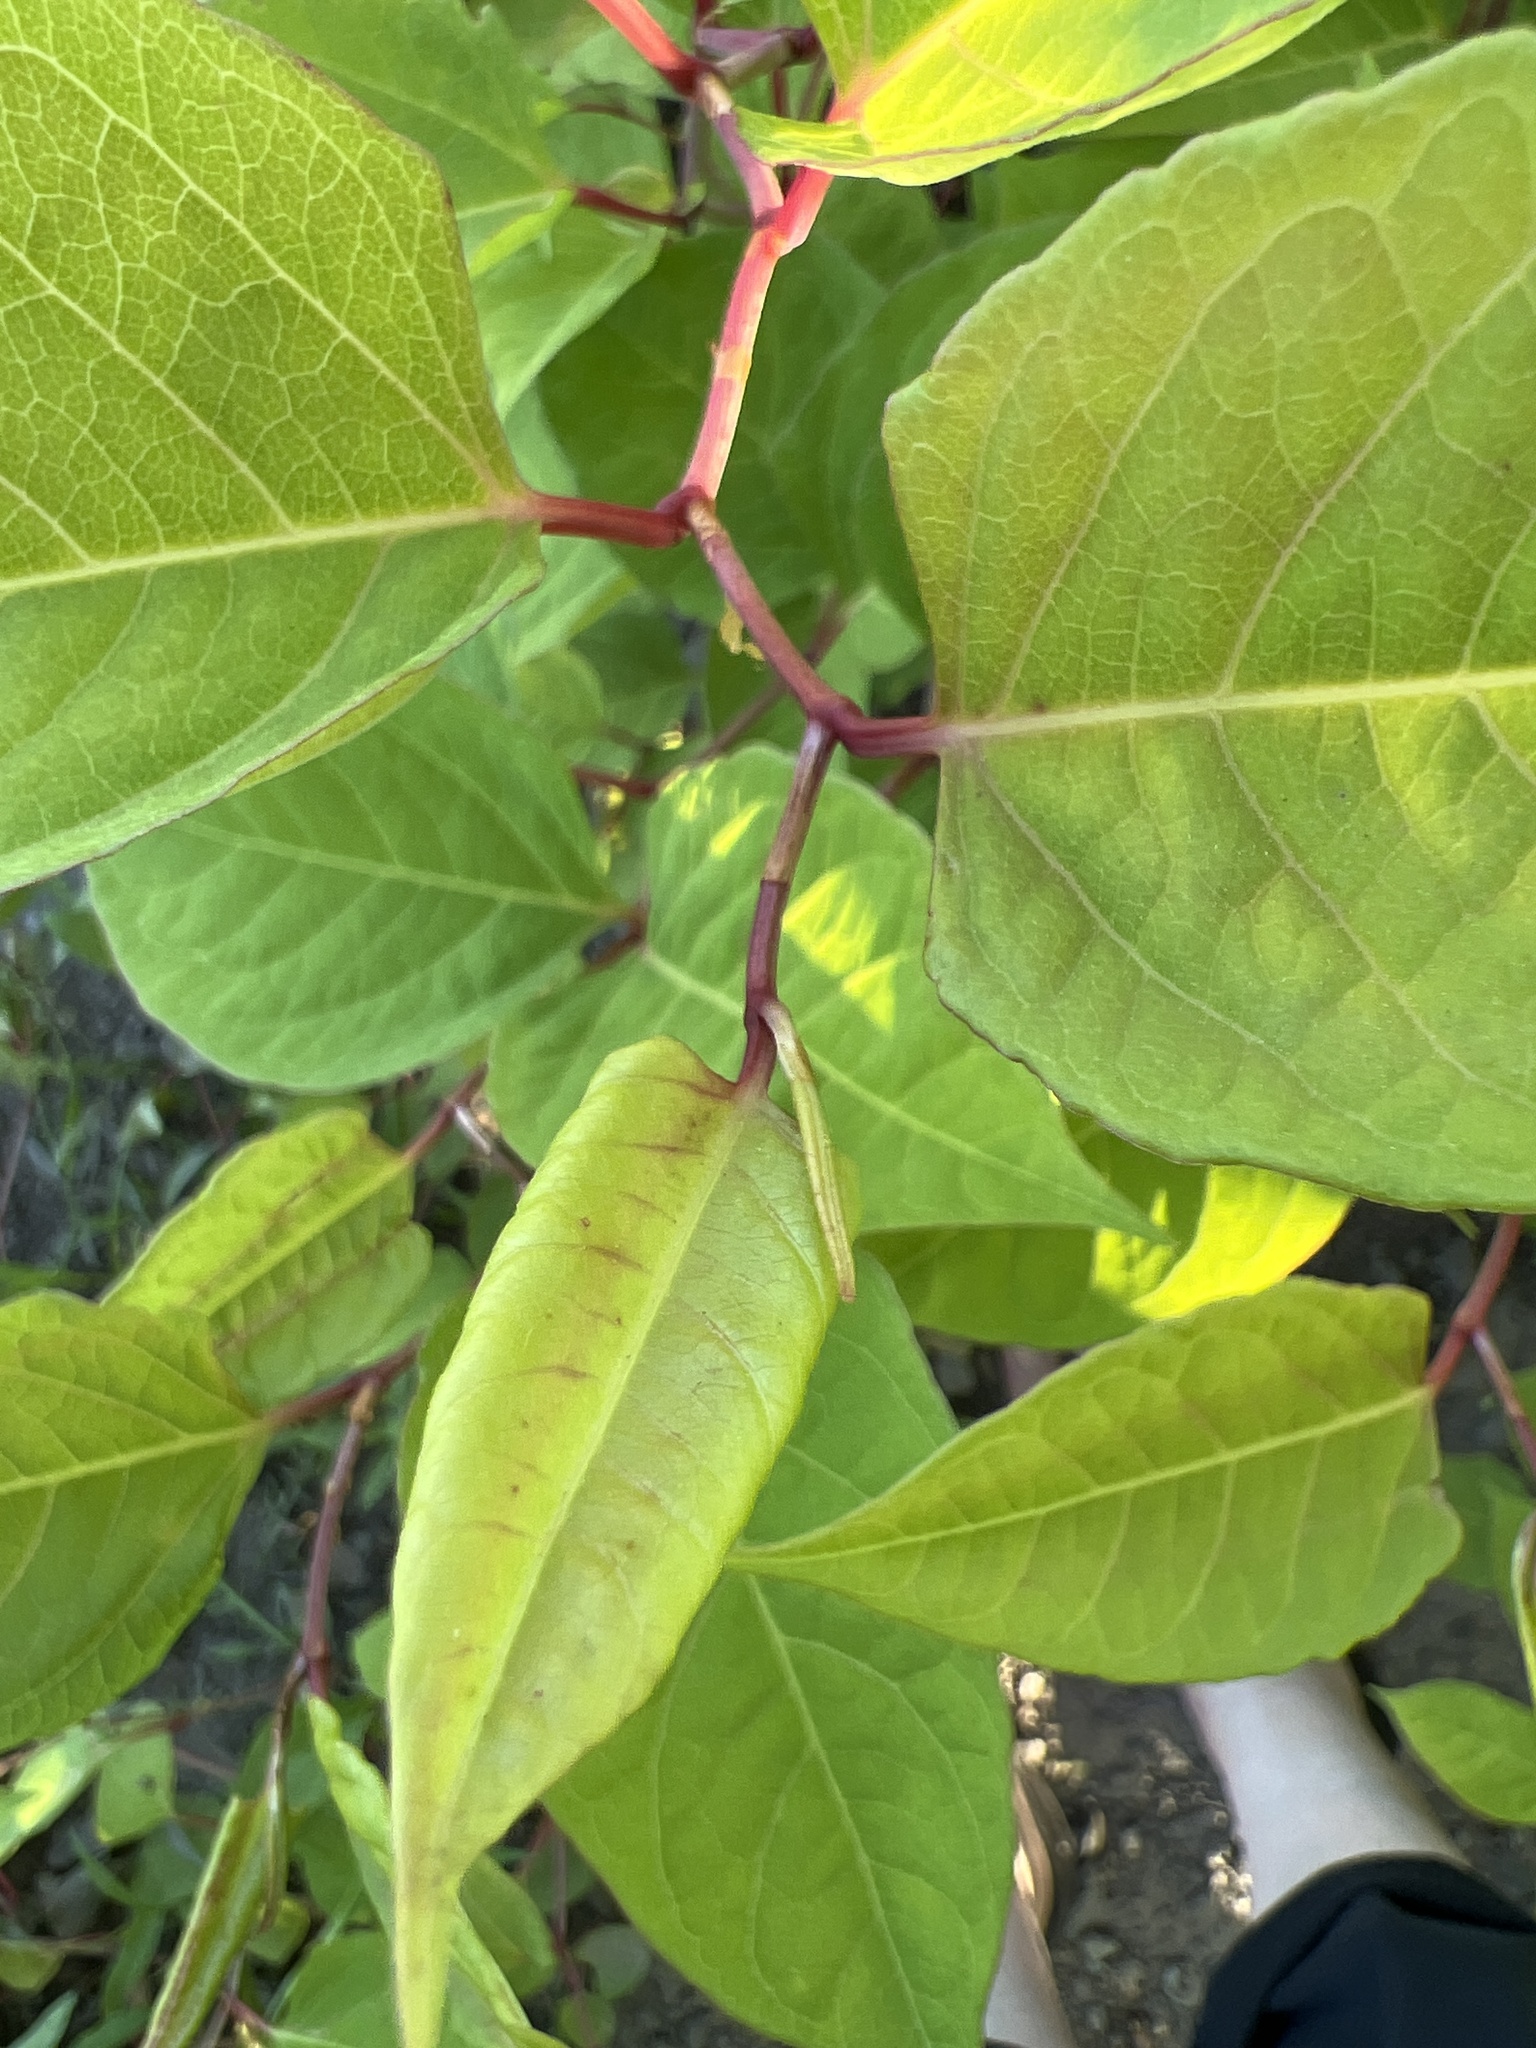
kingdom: Plantae
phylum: Tracheophyta
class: Magnoliopsida
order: Caryophyllales
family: Polygonaceae
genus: Reynoutria
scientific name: Reynoutria japonica
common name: Japanese knotweed
